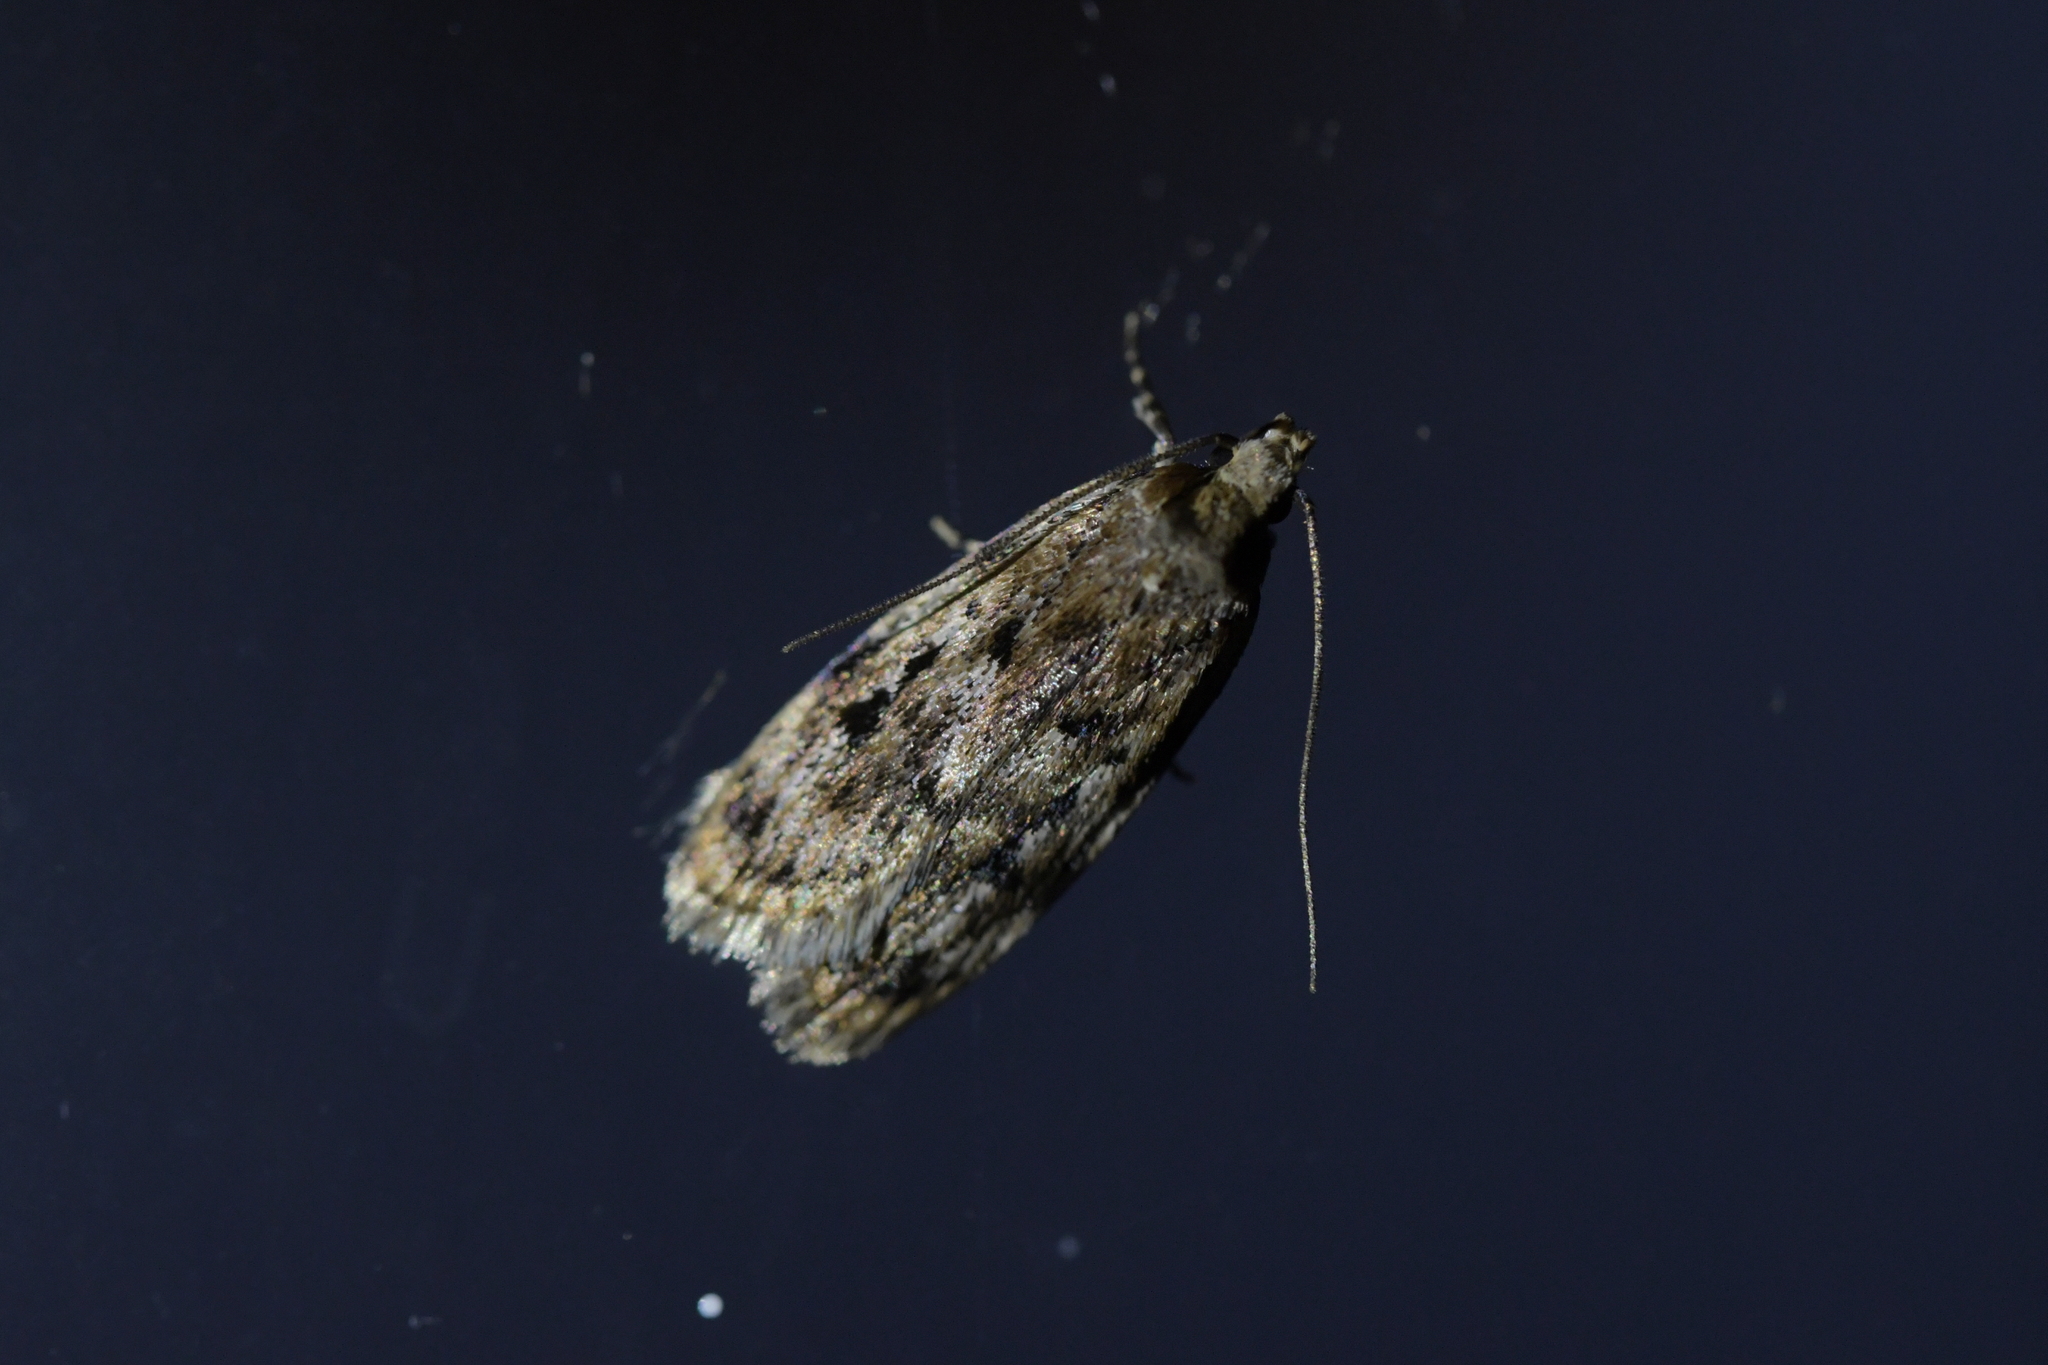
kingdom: Animalia
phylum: Arthropoda
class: Insecta
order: Lepidoptera
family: Oecophoridae
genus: Barea
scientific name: Barea exarcha
